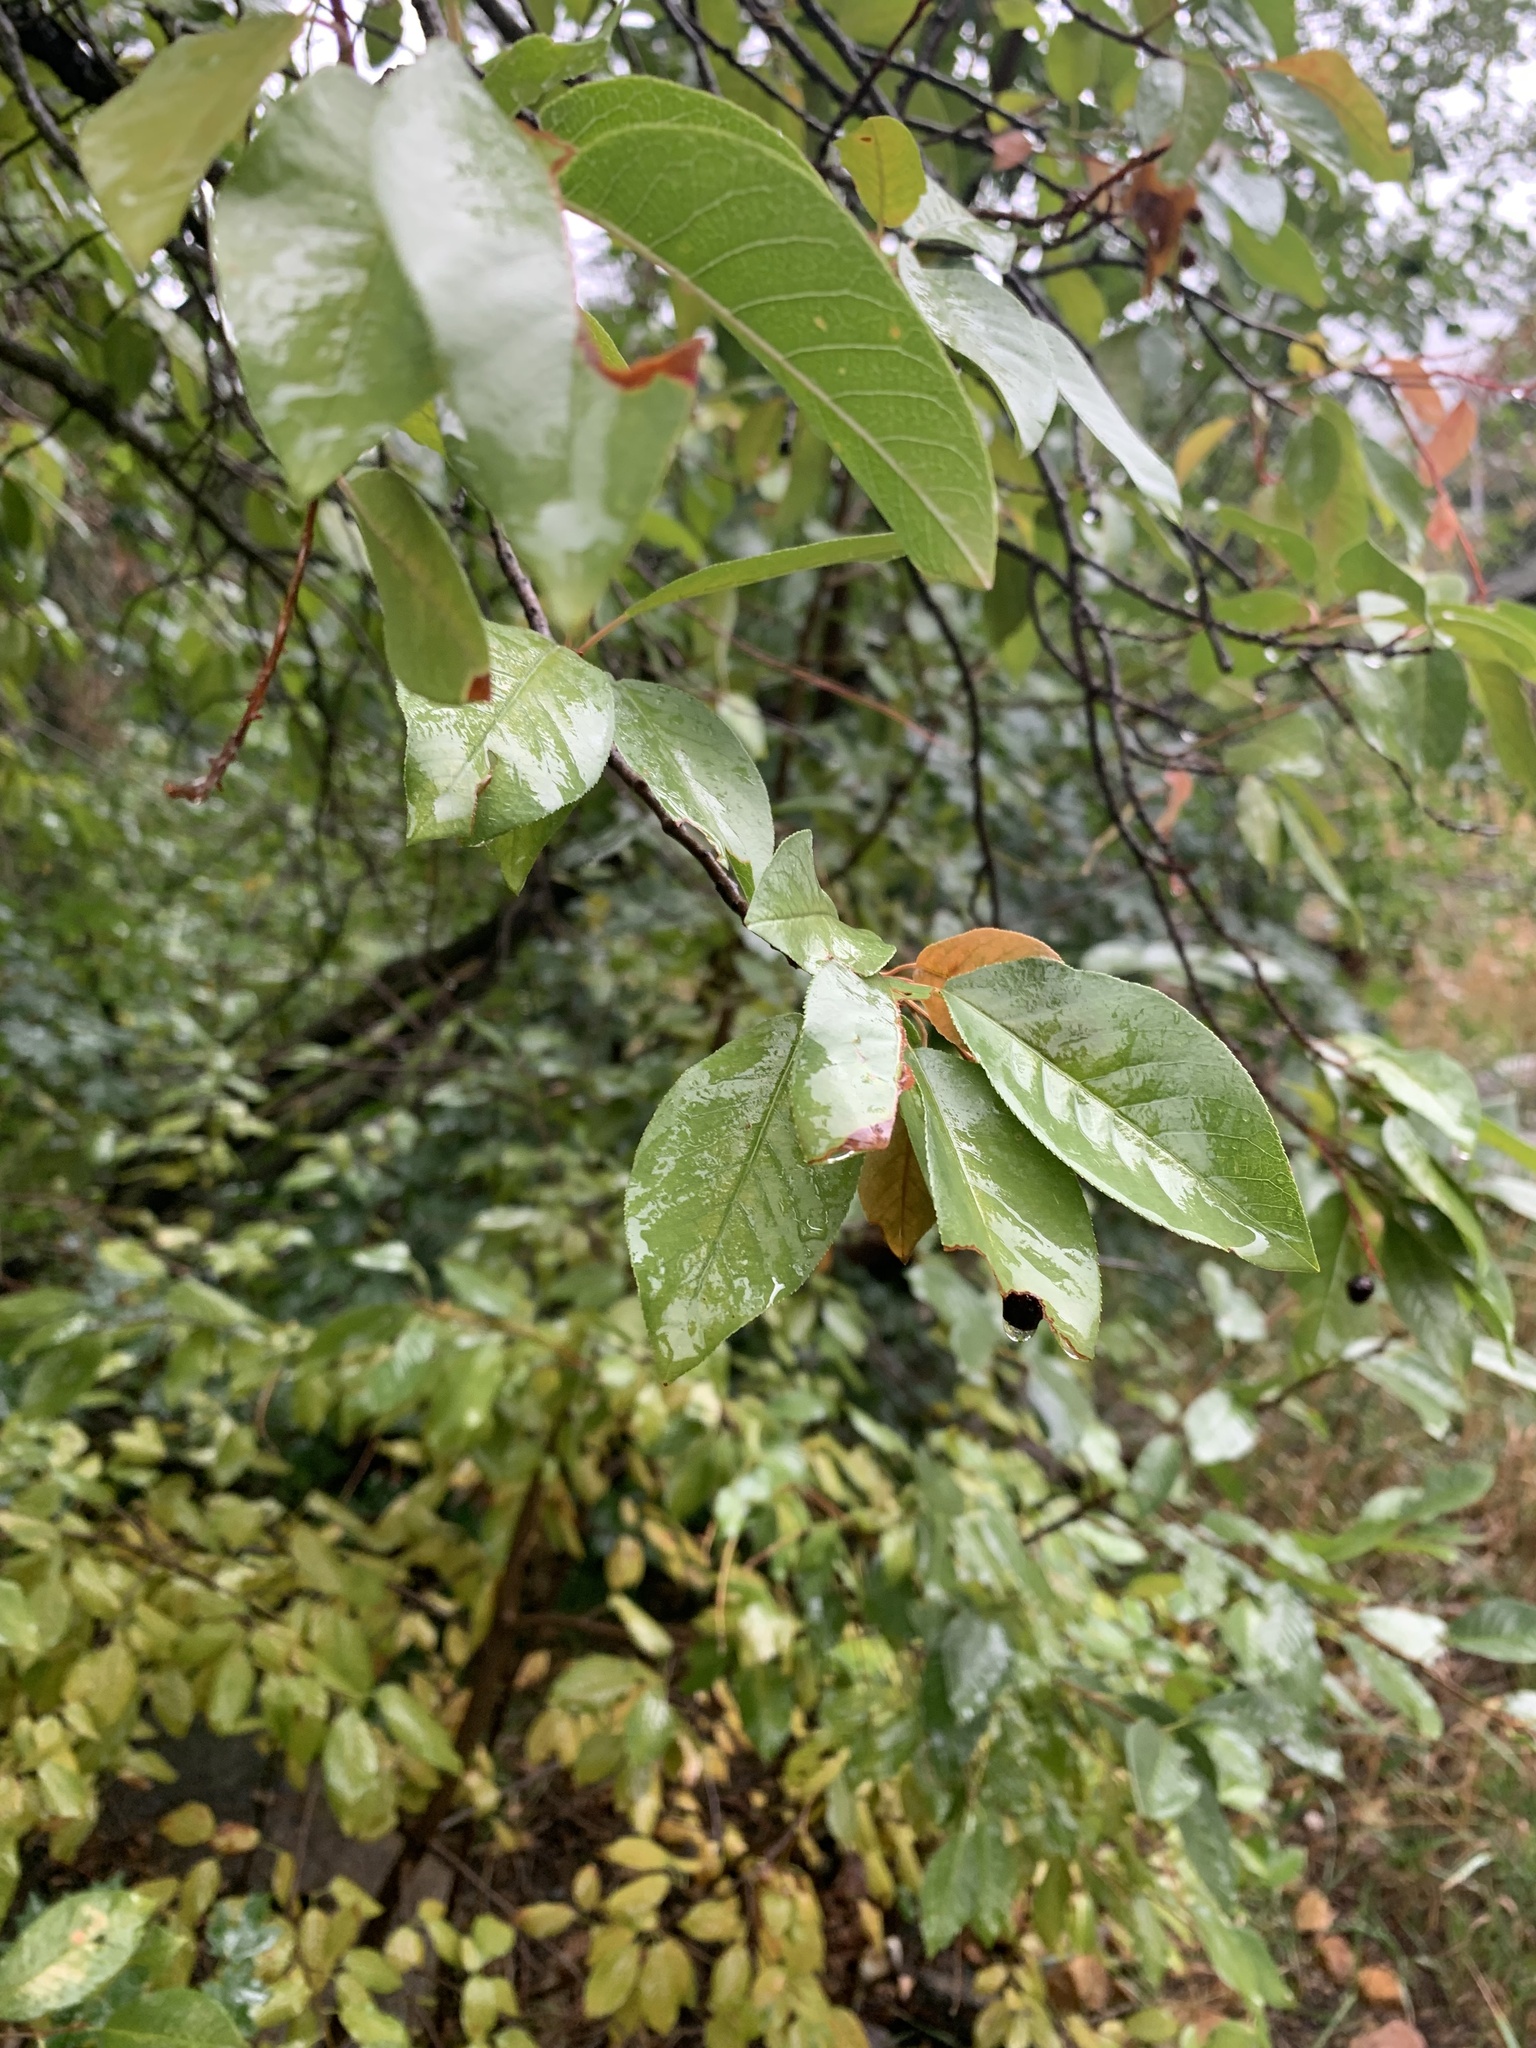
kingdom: Plantae
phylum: Tracheophyta
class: Magnoliopsida
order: Rosales
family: Rosaceae
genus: Prunus
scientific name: Prunus virginiana
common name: Chokecherry
